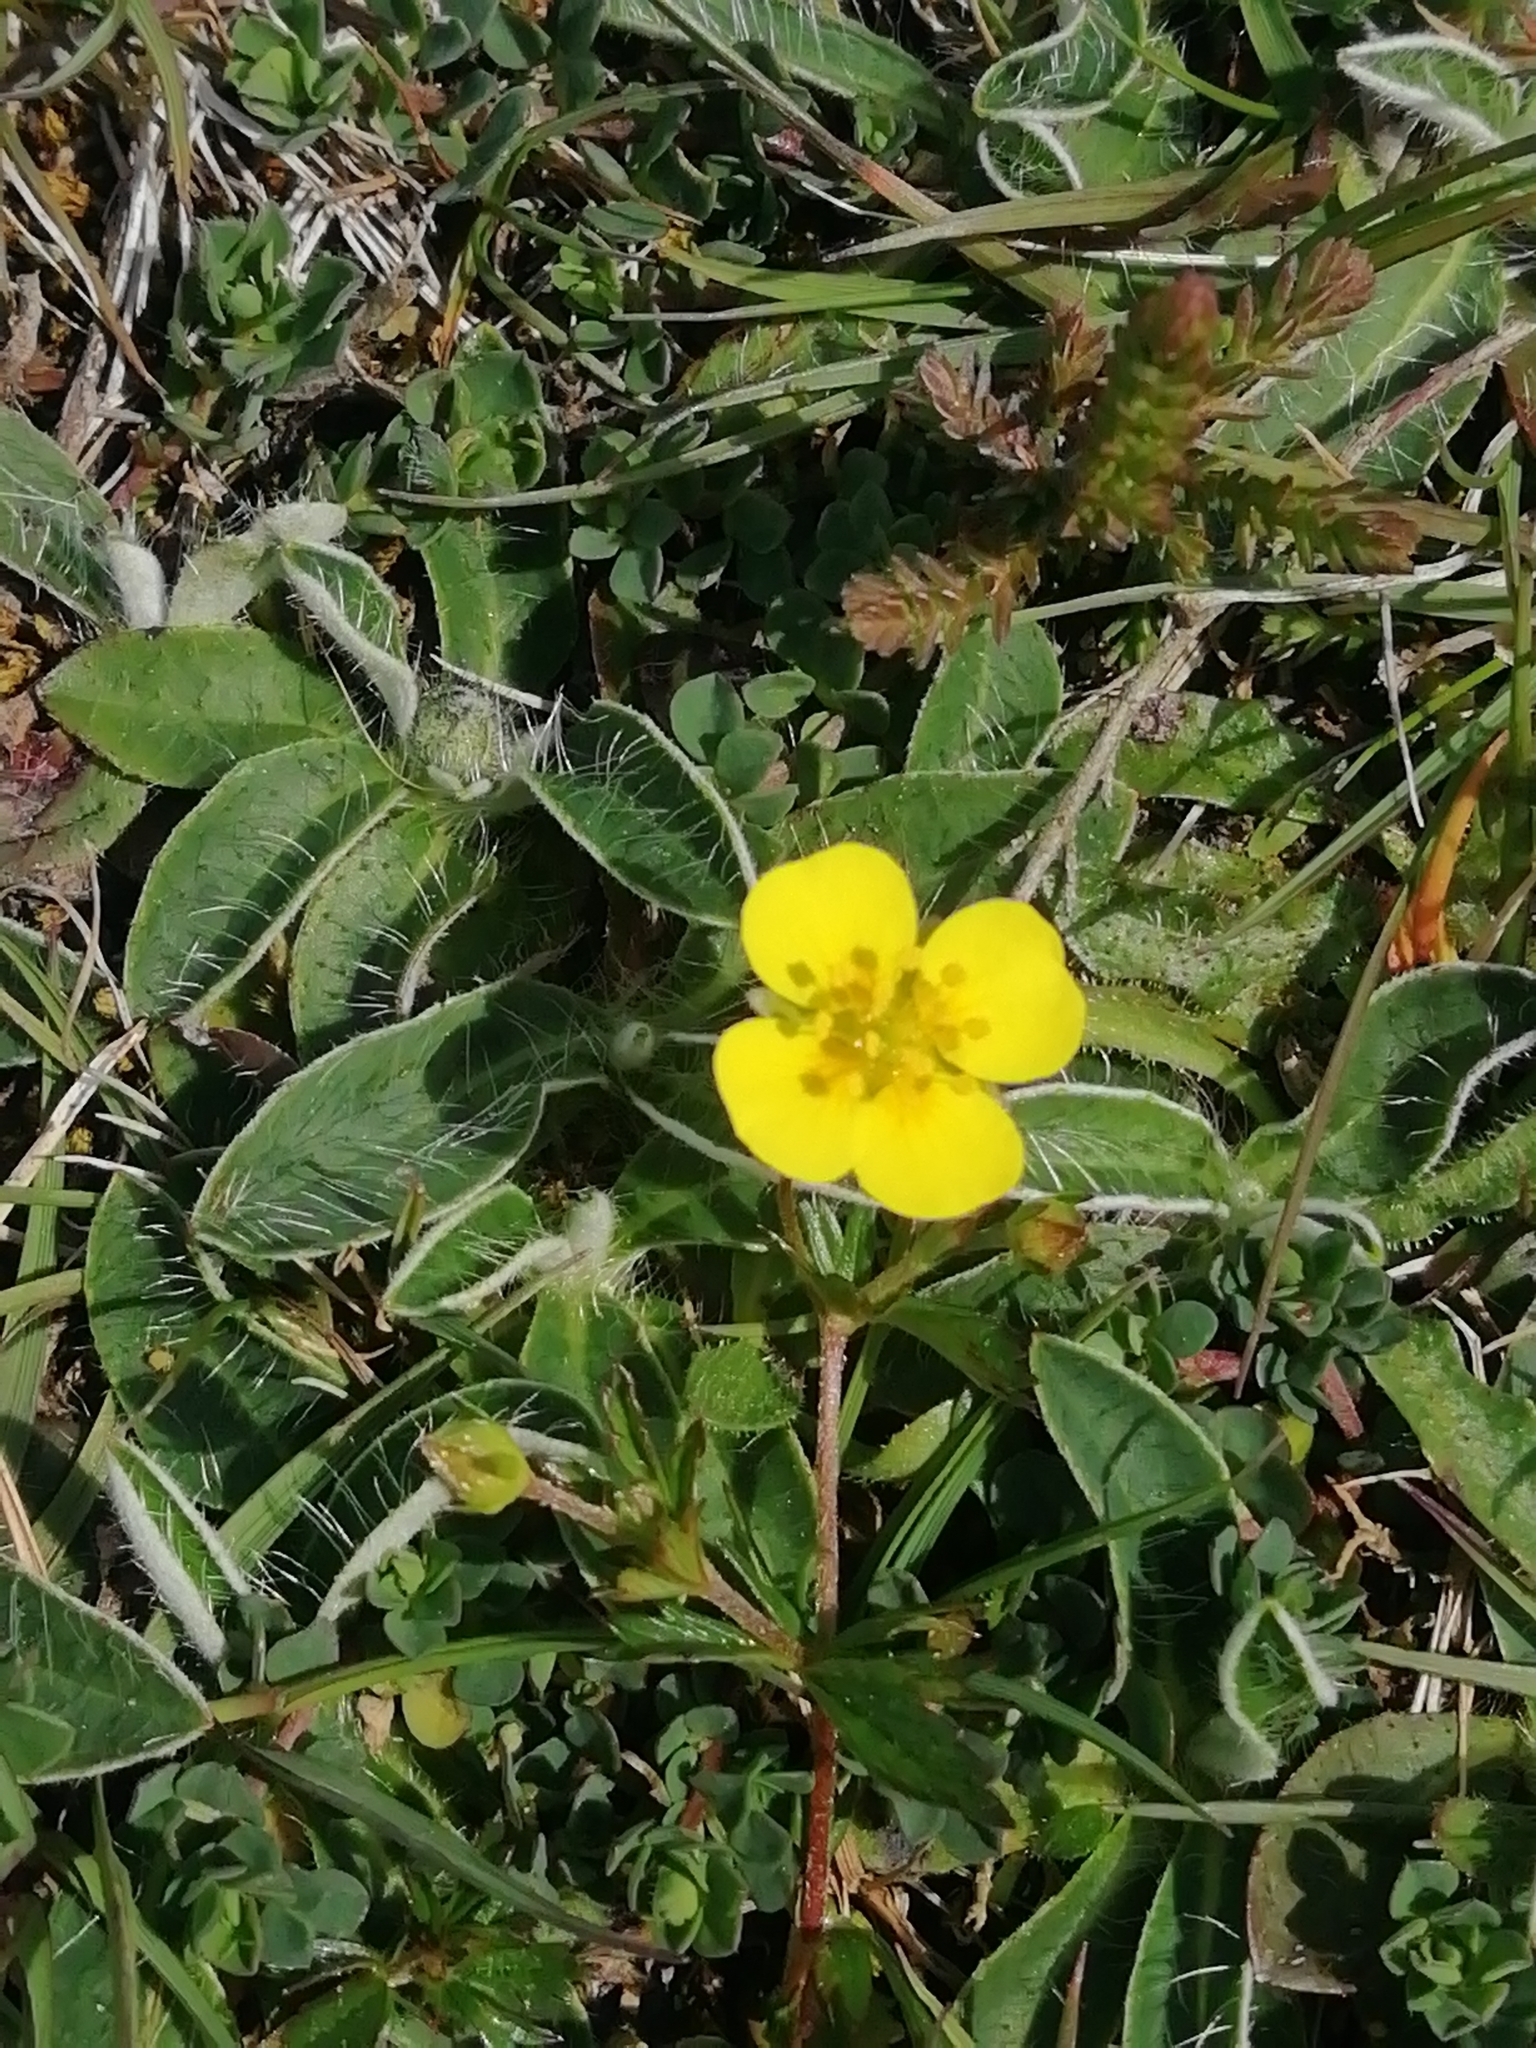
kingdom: Plantae
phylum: Tracheophyta
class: Magnoliopsida
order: Rosales
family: Rosaceae
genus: Potentilla
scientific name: Potentilla erecta
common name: Tormentil
